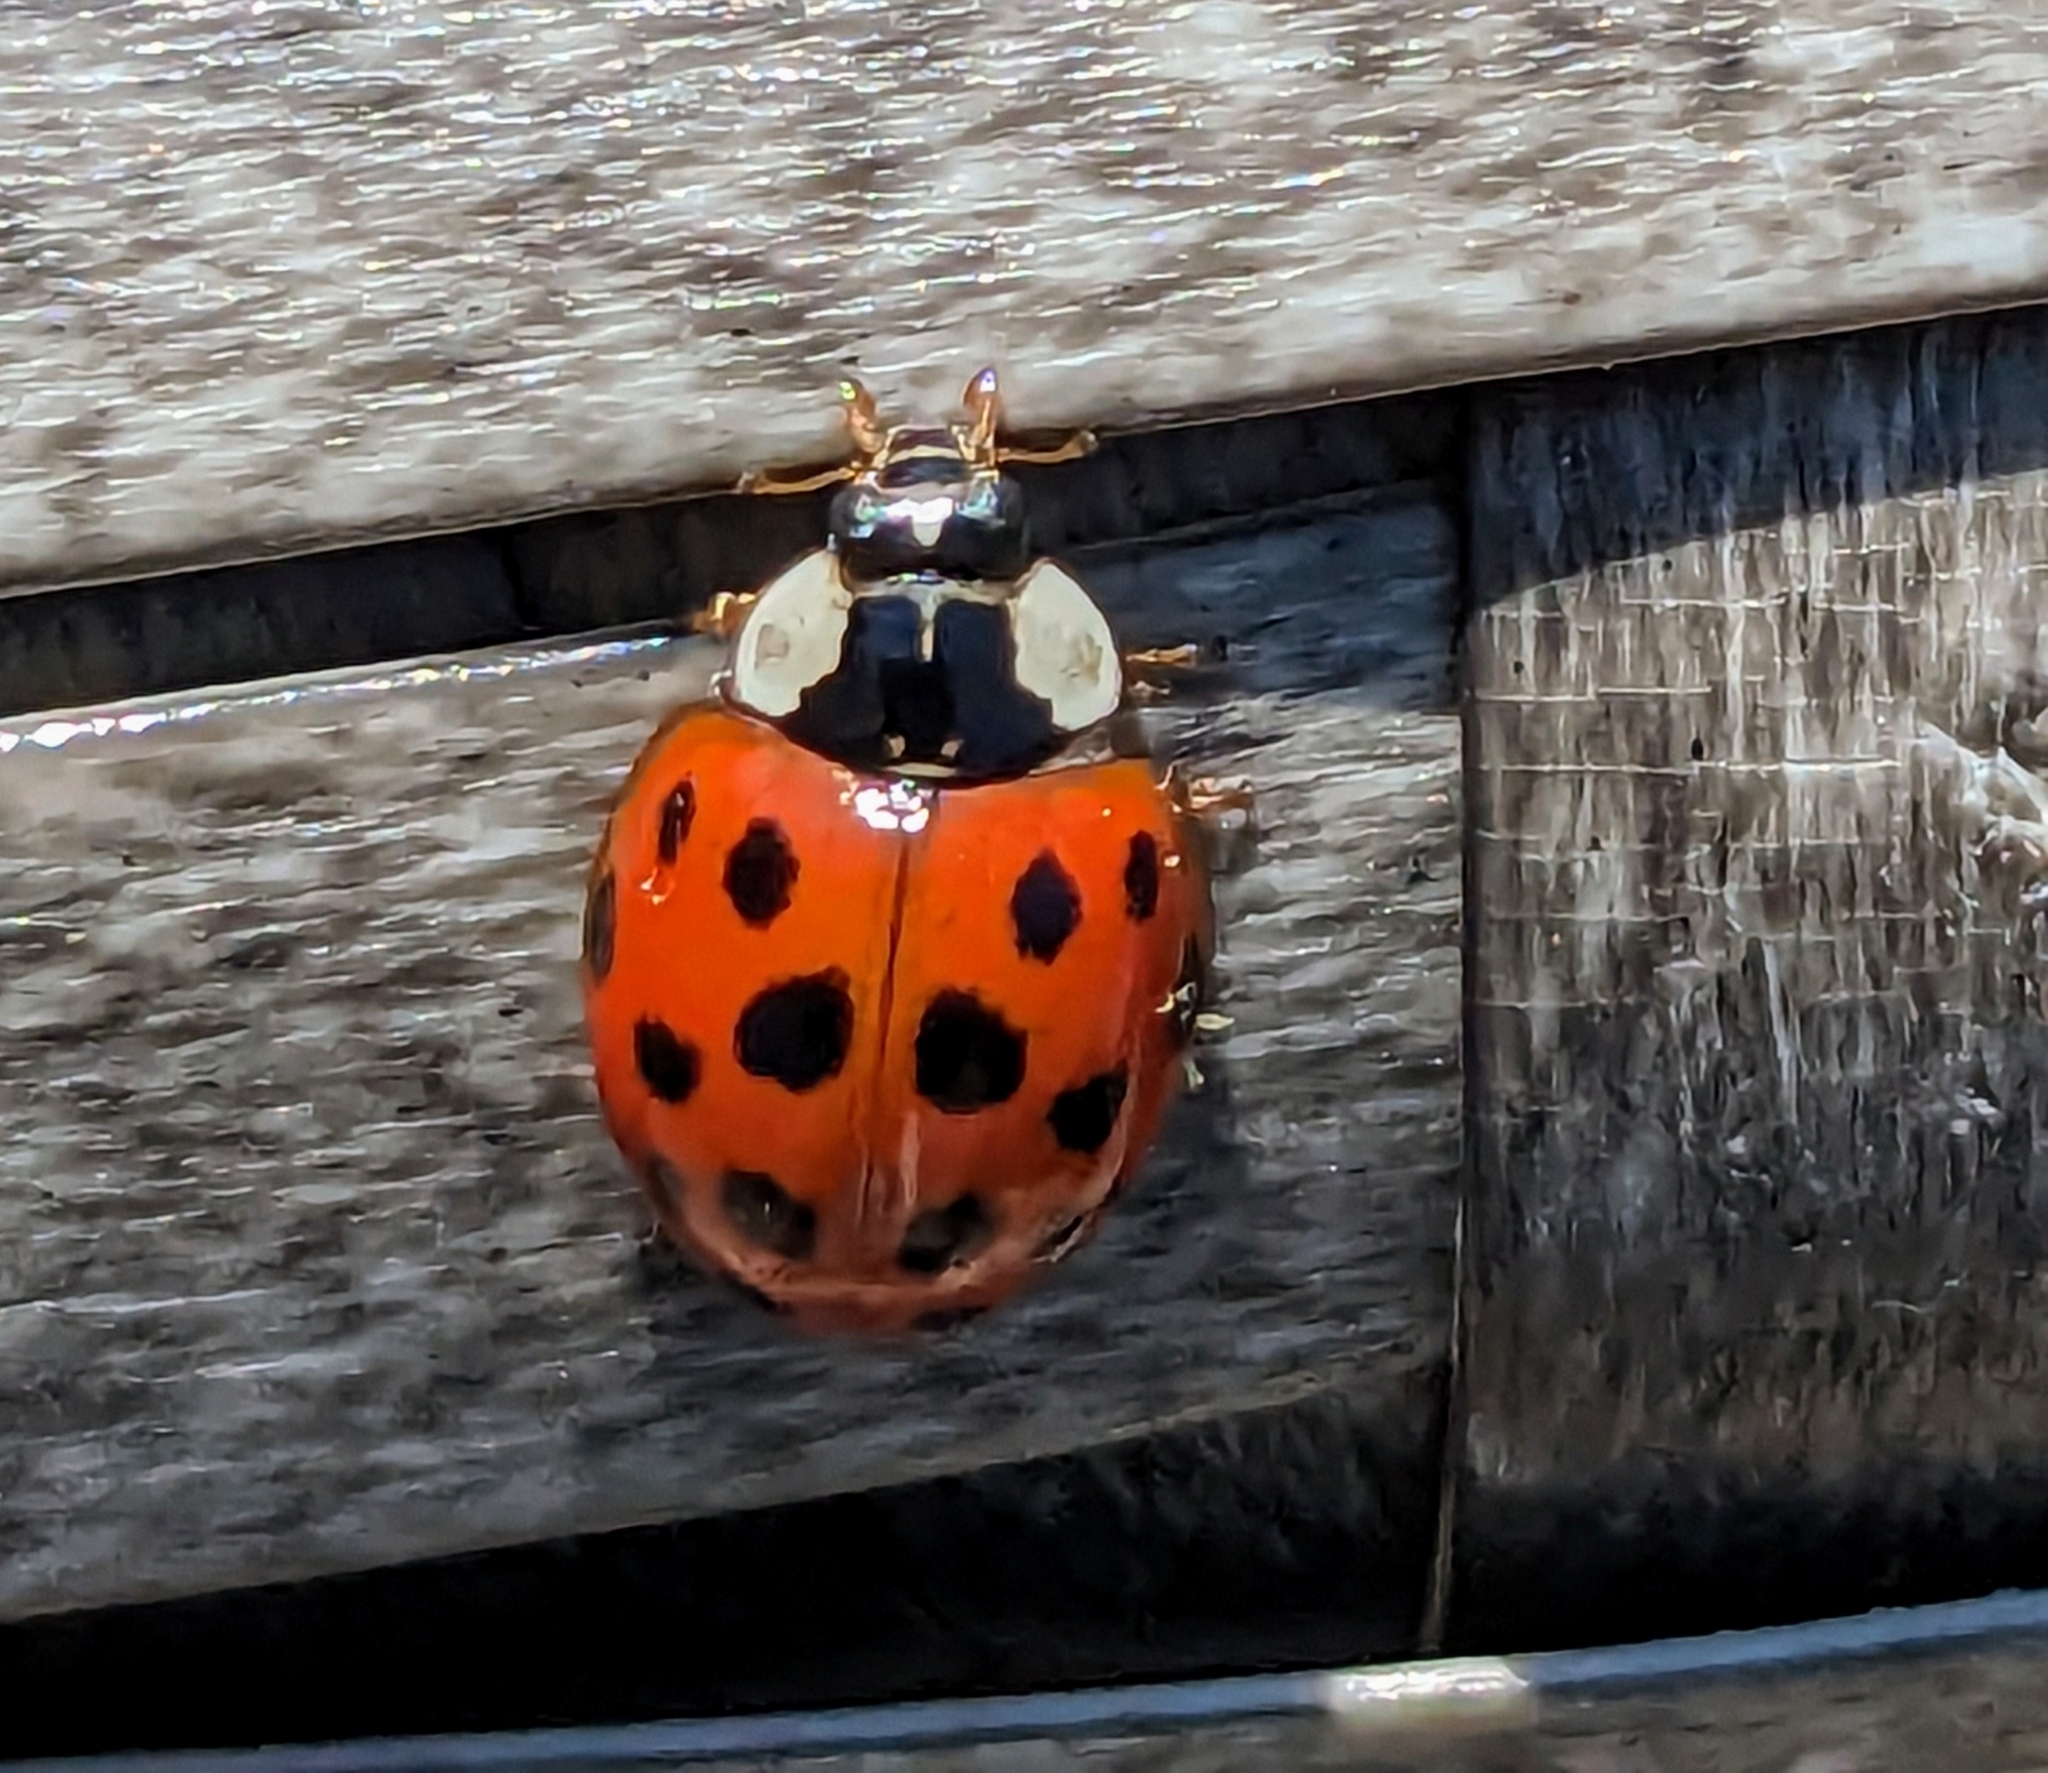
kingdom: Animalia
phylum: Arthropoda
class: Insecta
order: Coleoptera
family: Coccinellidae
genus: Harmonia
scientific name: Harmonia axyridis
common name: Harlequin ladybird
